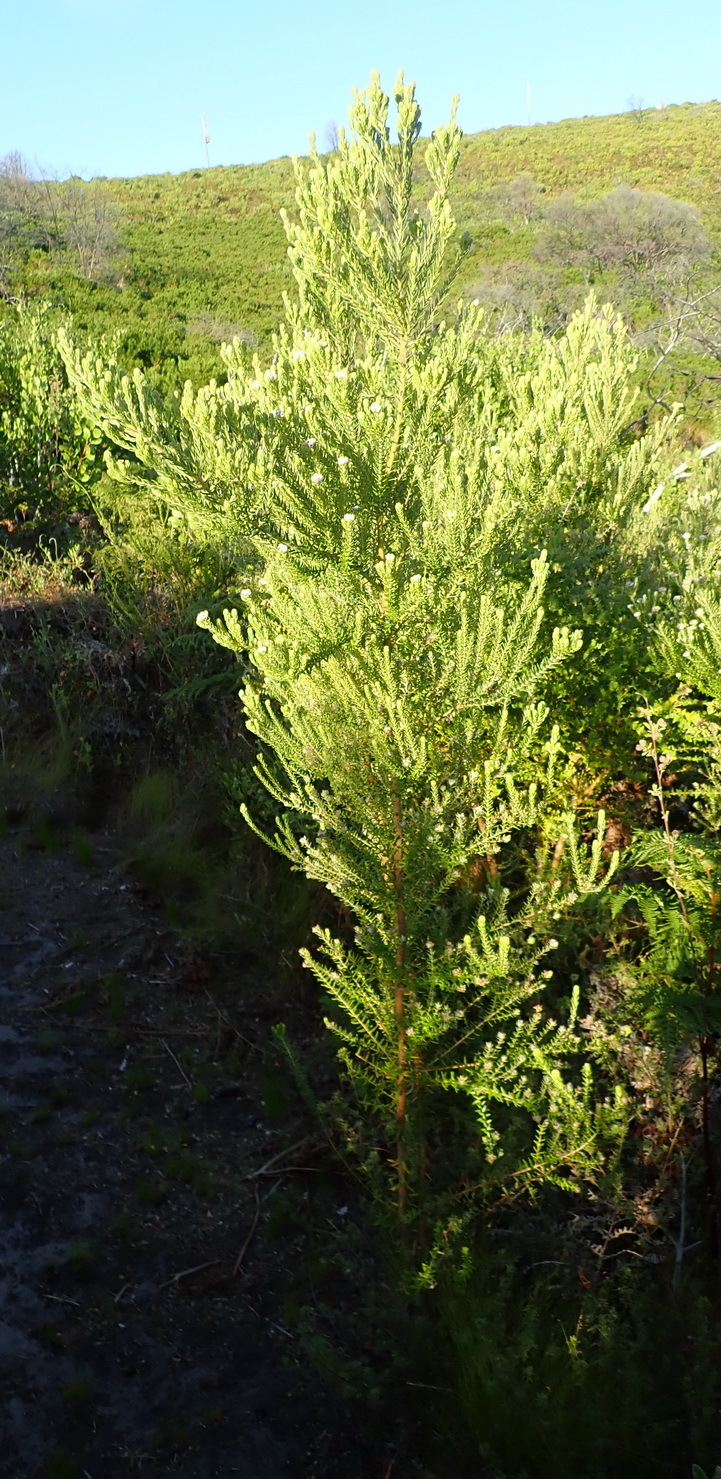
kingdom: Plantae
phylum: Tracheophyta
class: Magnoliopsida
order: Rosales
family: Rhamnaceae
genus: Phylica
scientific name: Phylica axillaris
